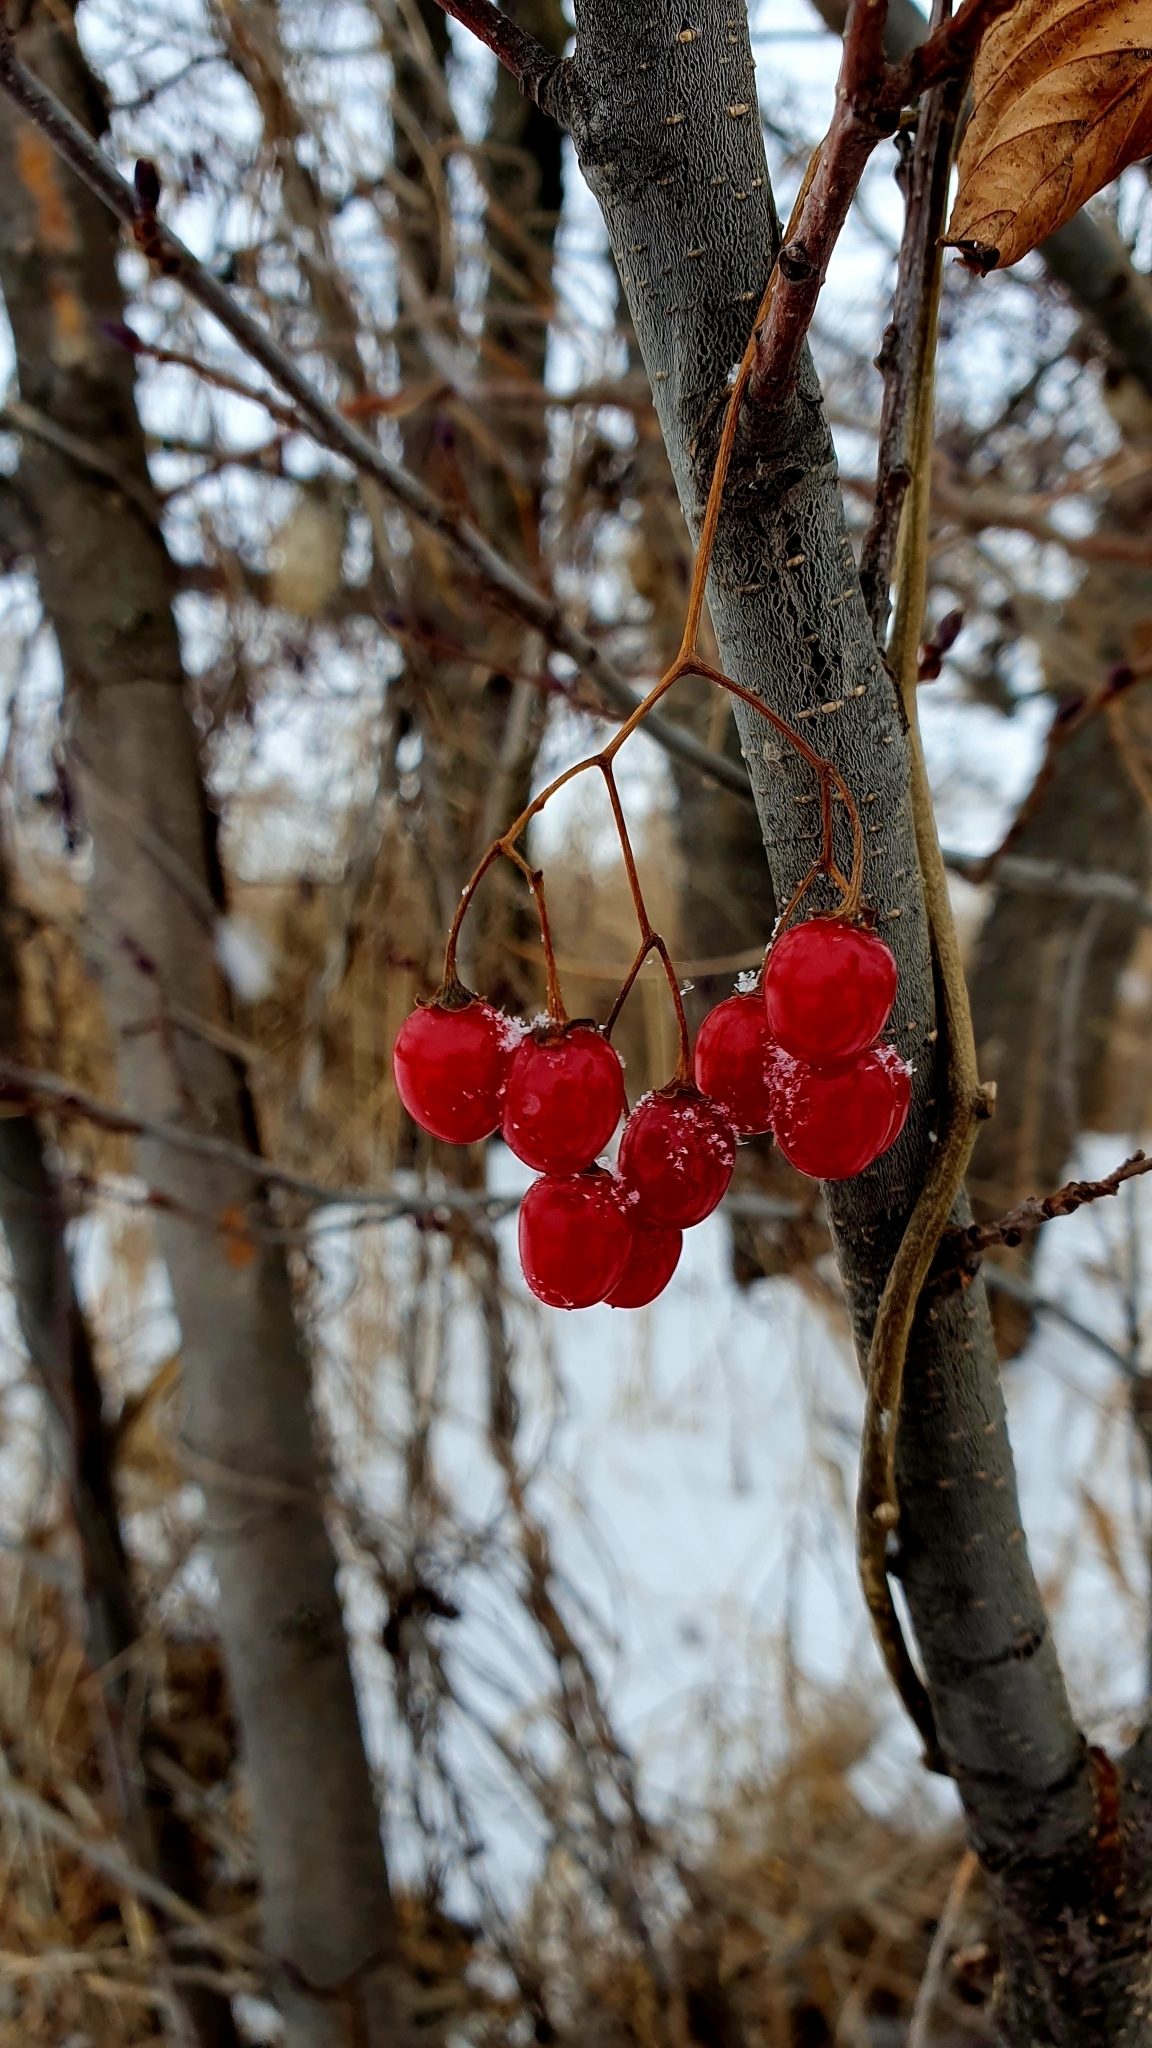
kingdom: Plantae
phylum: Tracheophyta
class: Magnoliopsida
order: Solanales
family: Solanaceae
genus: Solanum
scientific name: Solanum dulcamara
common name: Climbing nightshade
